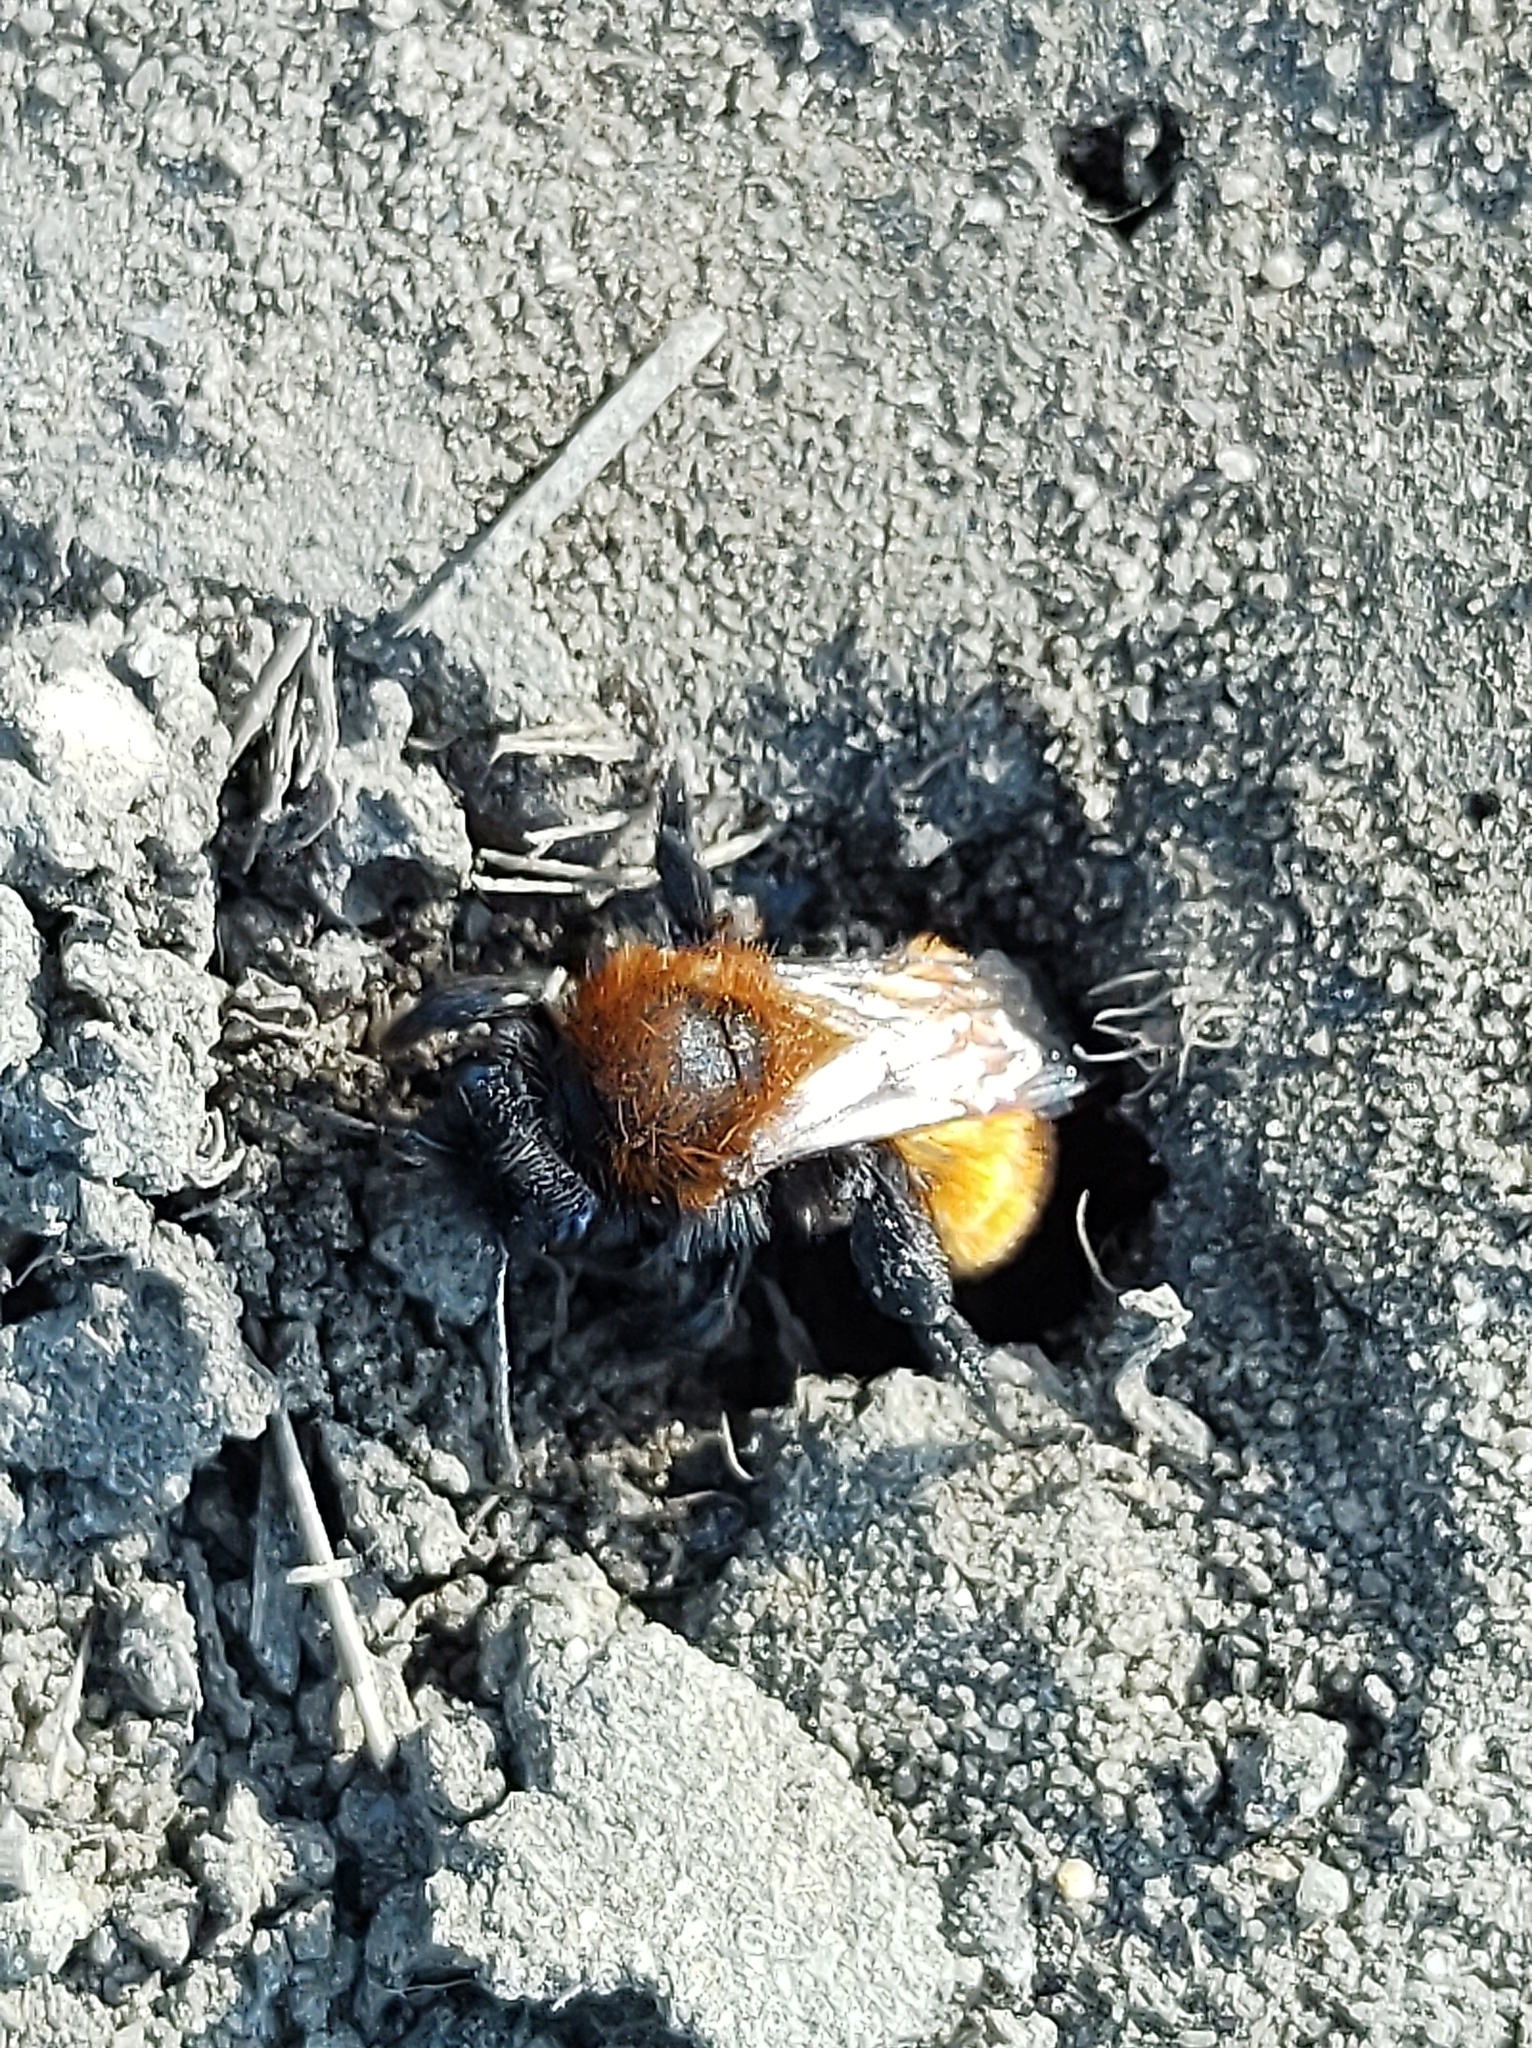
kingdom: Animalia
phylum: Arthropoda
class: Insecta
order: Hymenoptera
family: Andrenidae
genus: Andrena
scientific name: Andrena fulva
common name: Tawny mining bee
